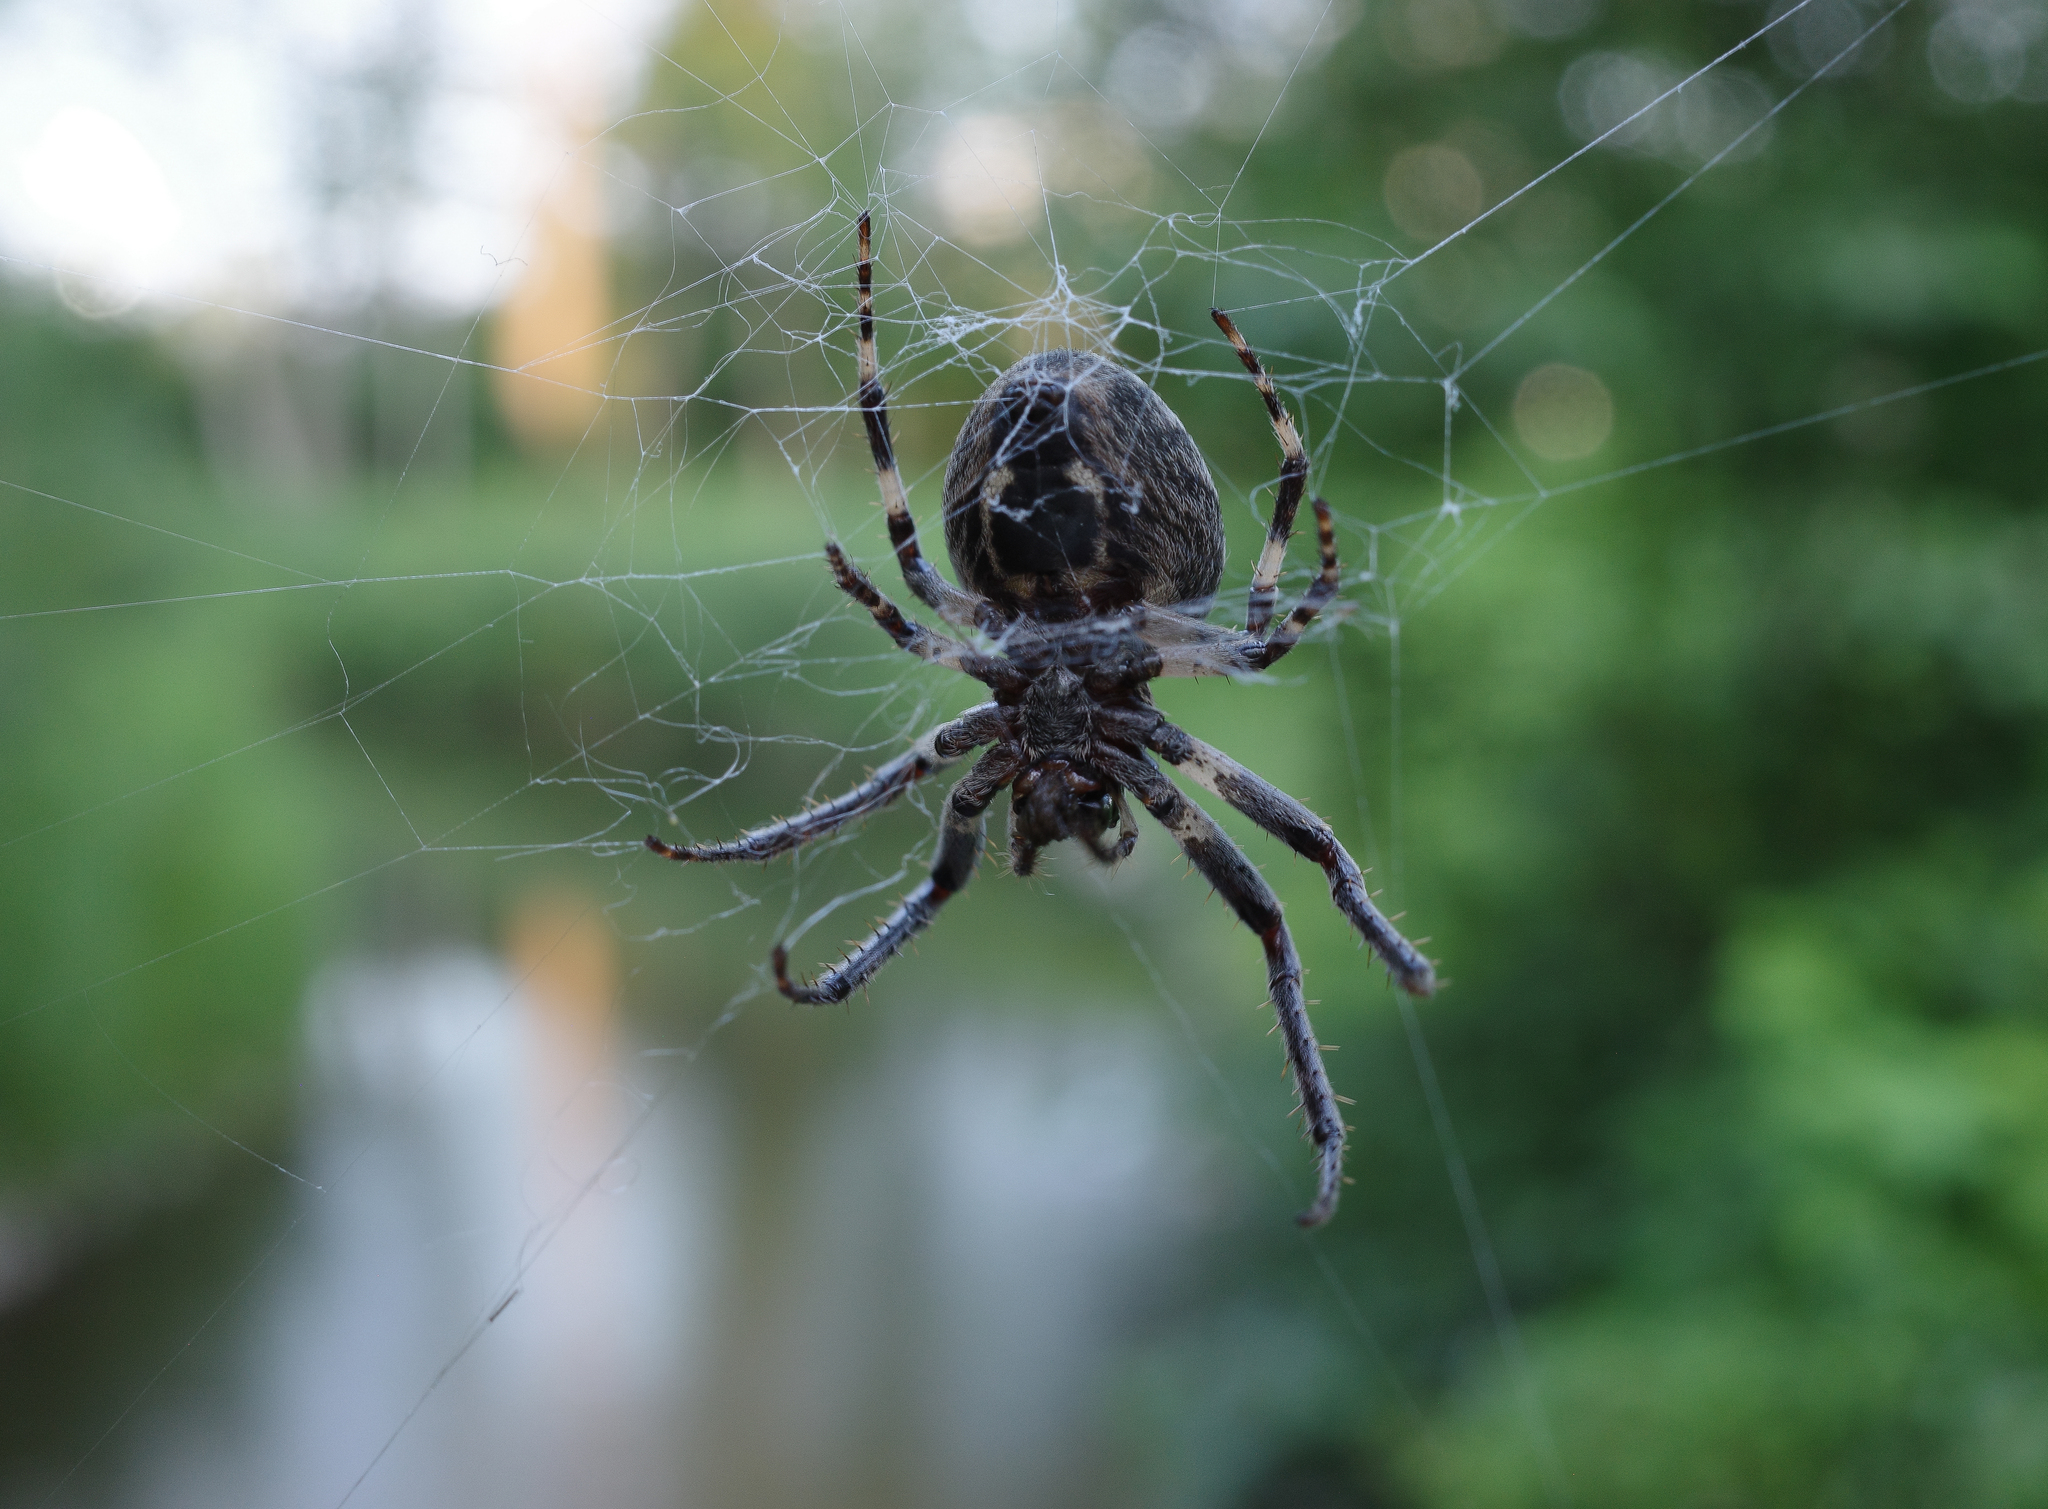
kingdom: Animalia
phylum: Arthropoda
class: Arachnida
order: Araneae
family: Araneidae
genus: Larinioides
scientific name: Larinioides sclopetarius
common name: Bridge orbweaver
